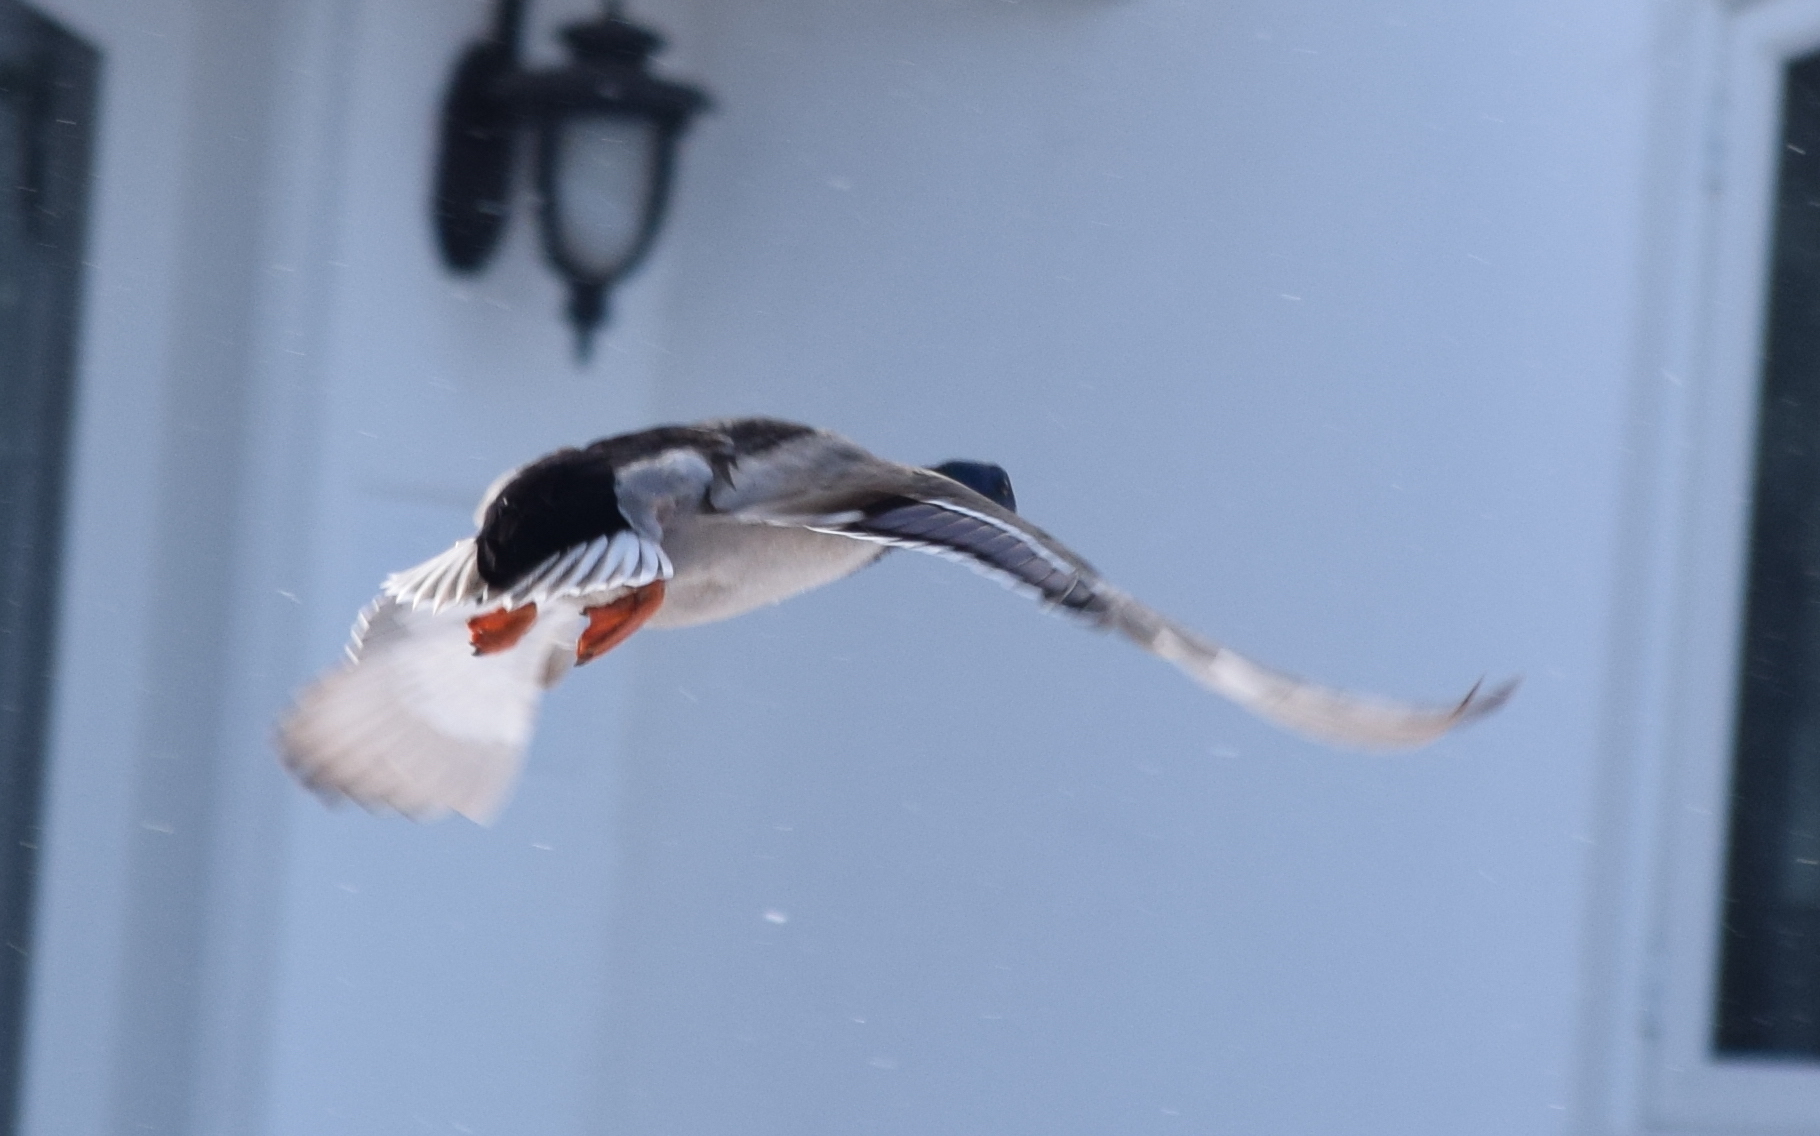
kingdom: Animalia
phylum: Chordata
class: Aves
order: Anseriformes
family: Anatidae
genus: Anas
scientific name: Anas platyrhynchos
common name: Mallard
